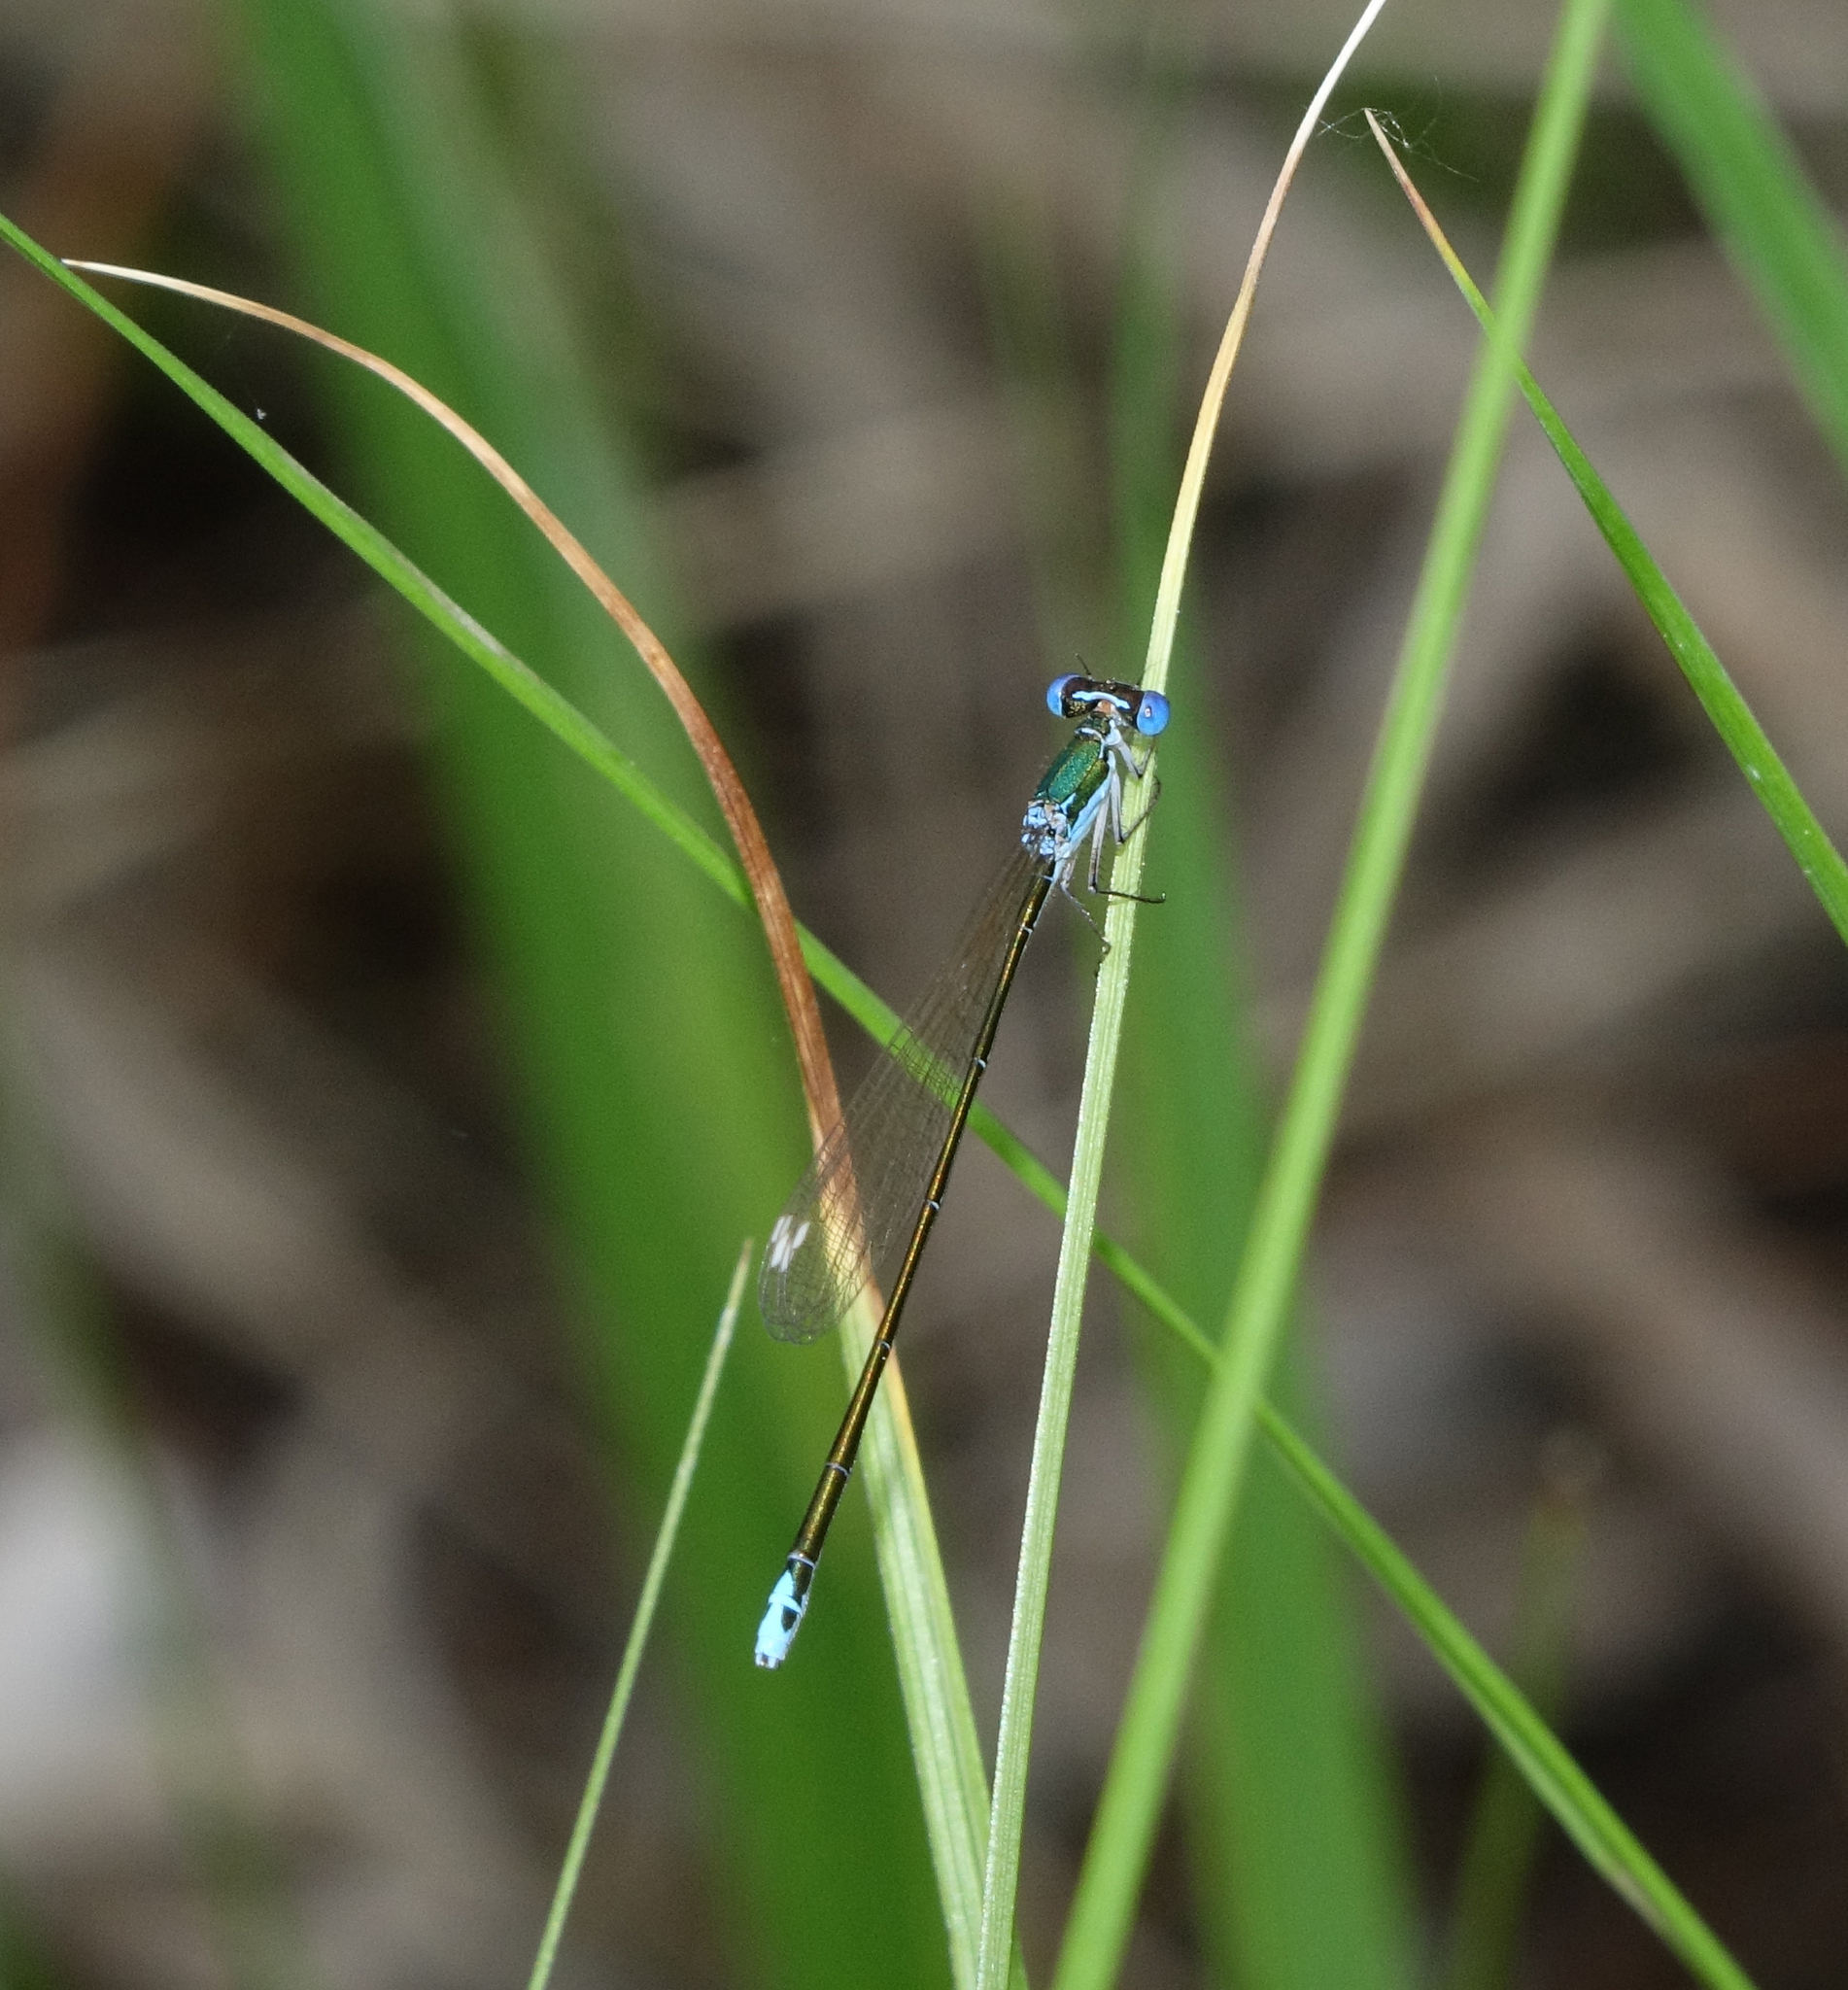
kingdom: Animalia
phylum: Arthropoda
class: Insecta
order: Odonata
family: Coenagrionidae
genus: Nehalennia
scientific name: Nehalennia speciosa
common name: Sedgling
